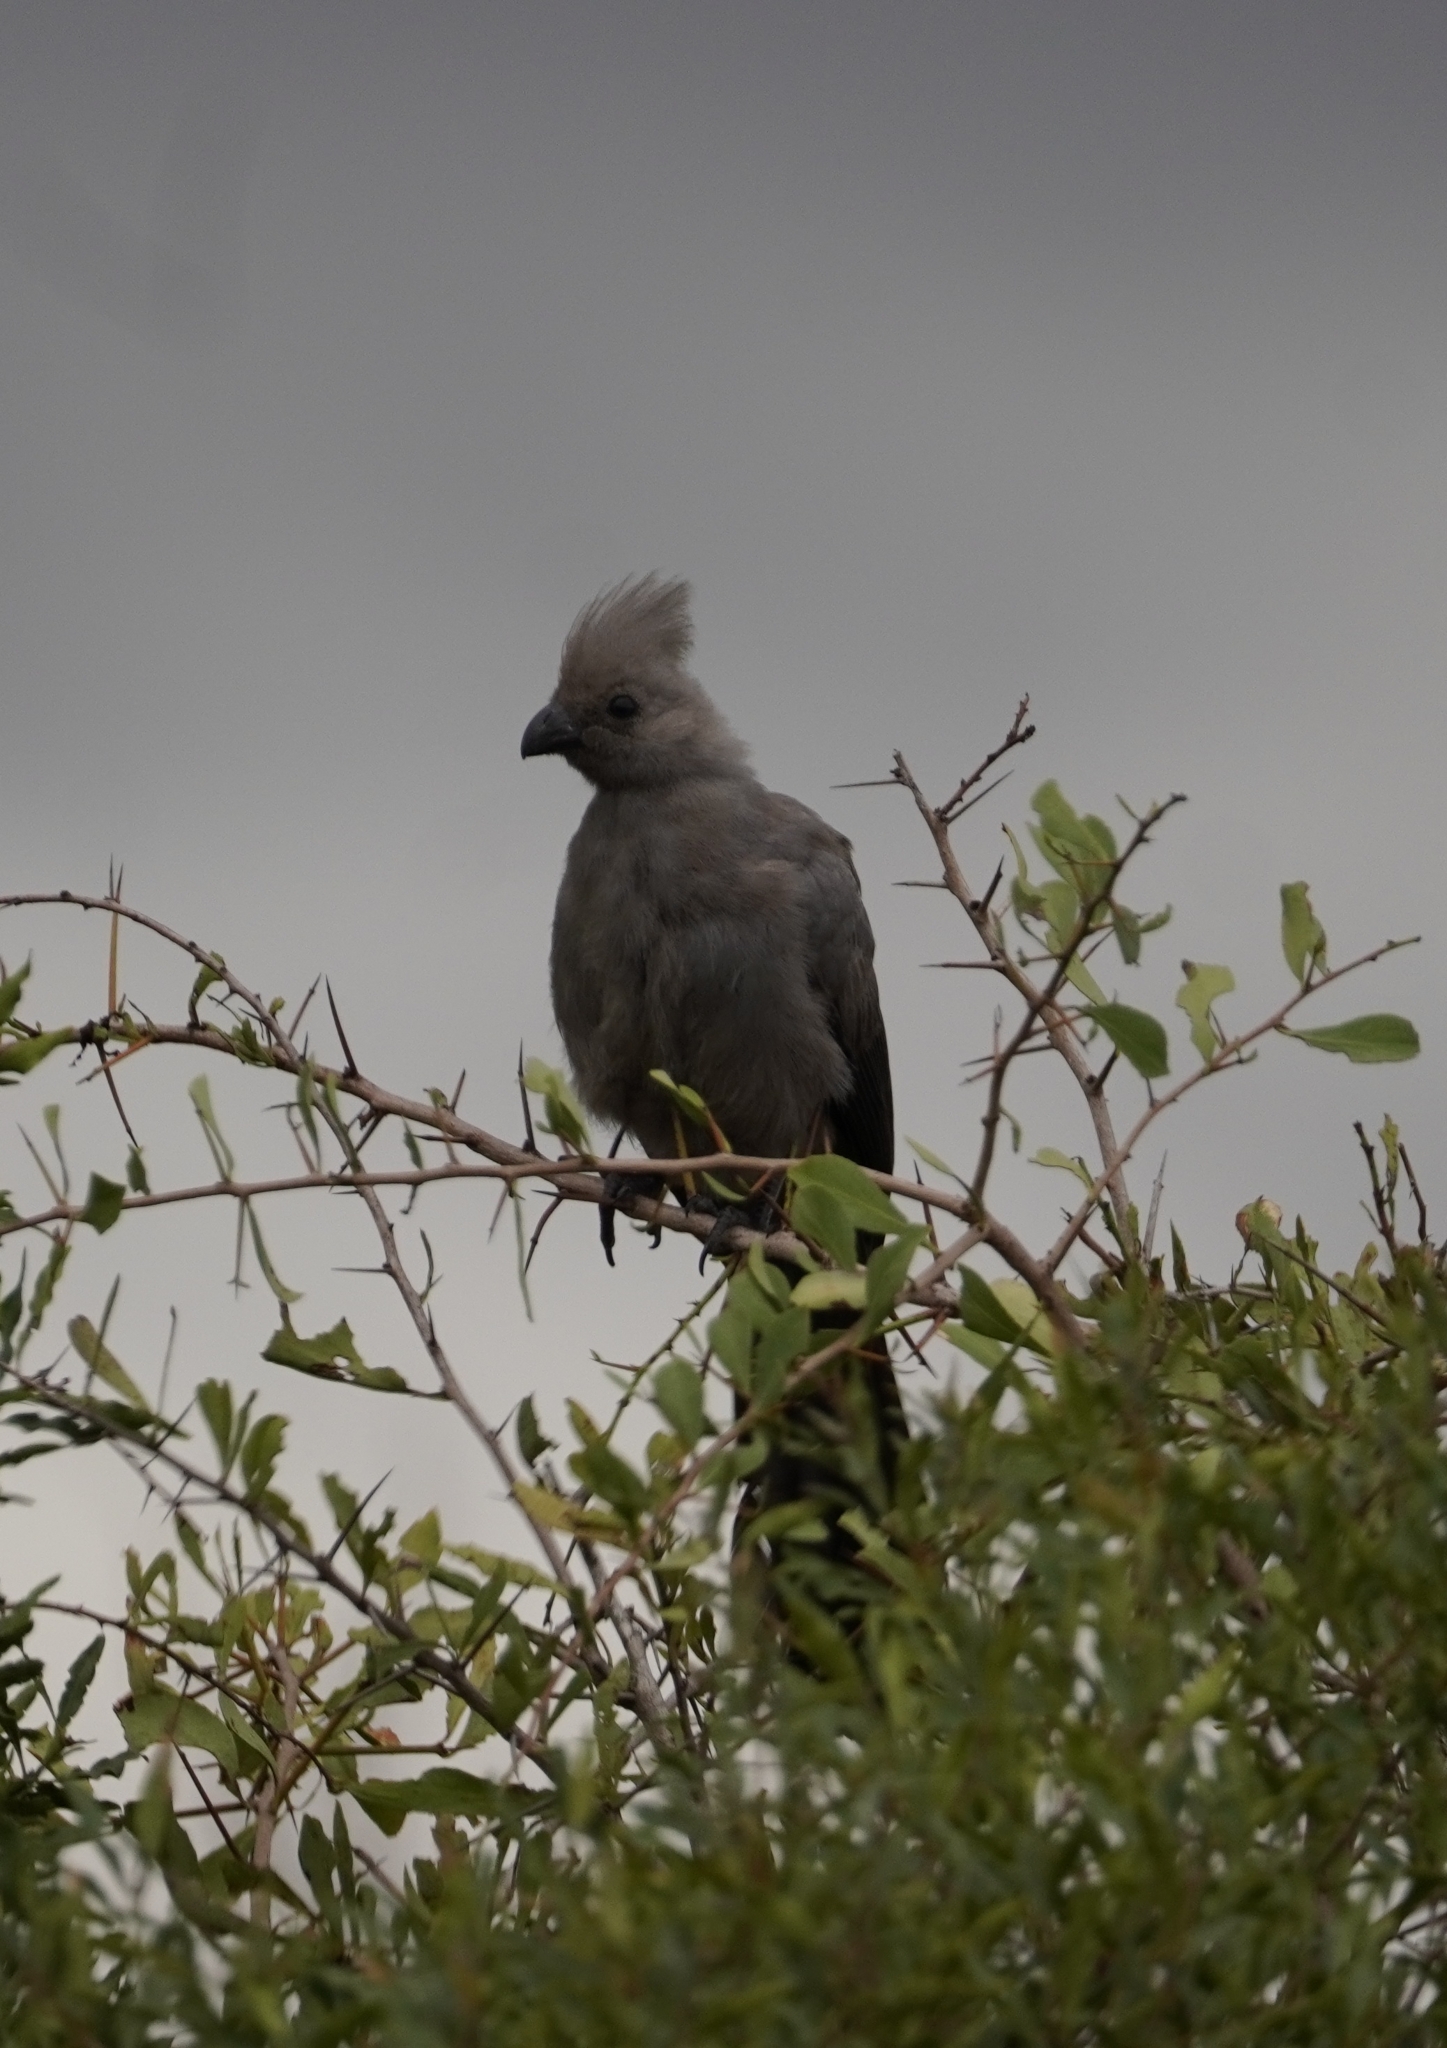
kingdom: Animalia
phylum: Chordata
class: Aves
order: Musophagiformes
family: Musophagidae
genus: Corythaixoides
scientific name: Corythaixoides concolor
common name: Grey go-away-bird
